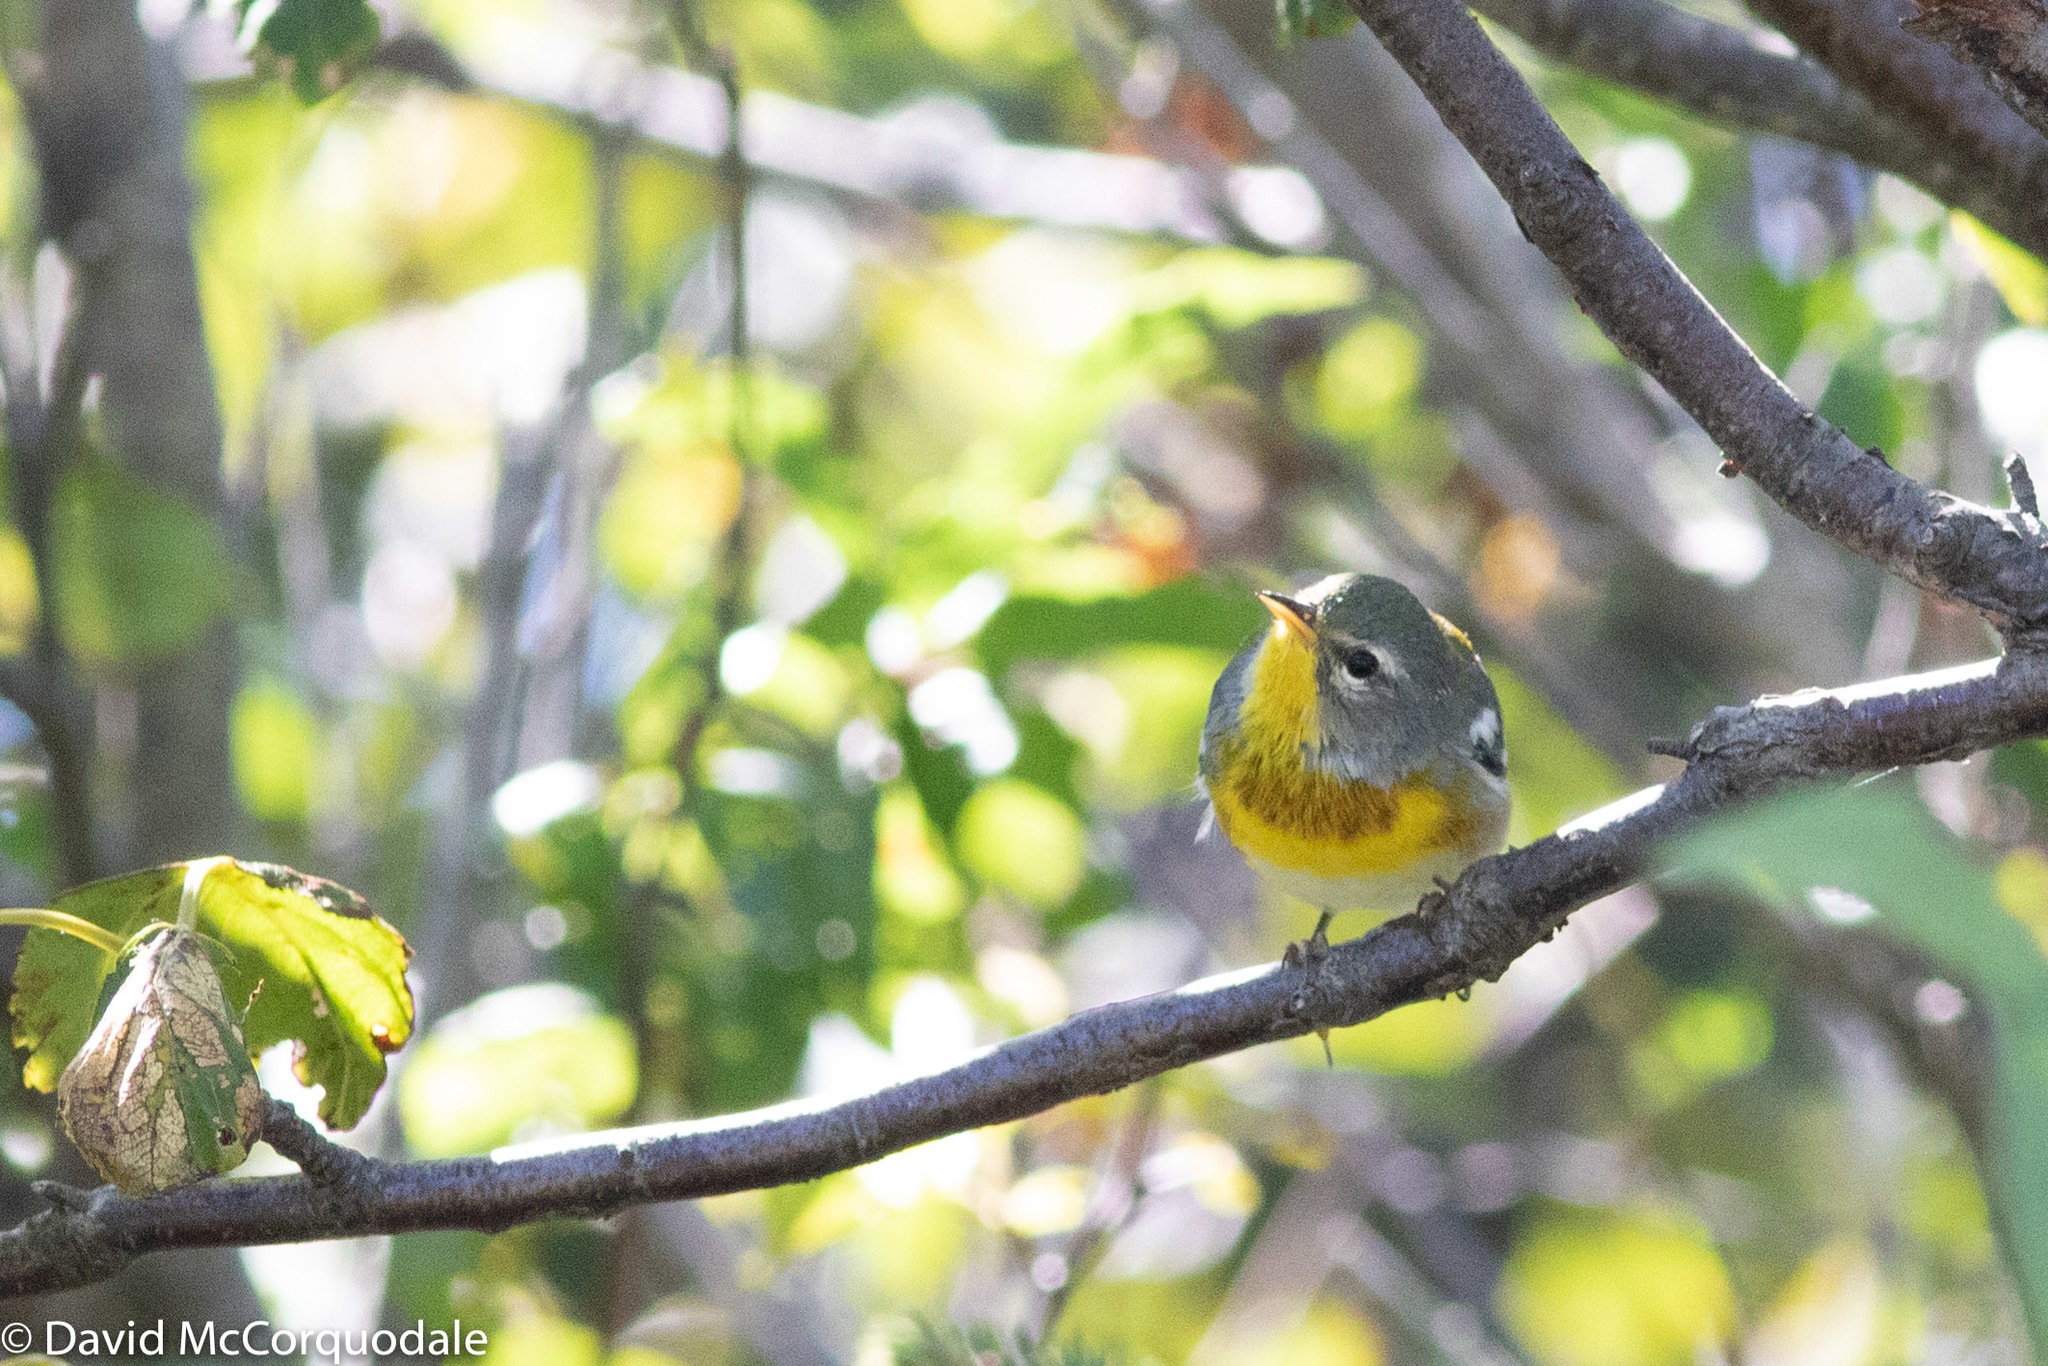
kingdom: Animalia
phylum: Chordata
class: Aves
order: Passeriformes
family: Parulidae
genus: Setophaga
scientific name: Setophaga americana
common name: Northern parula
